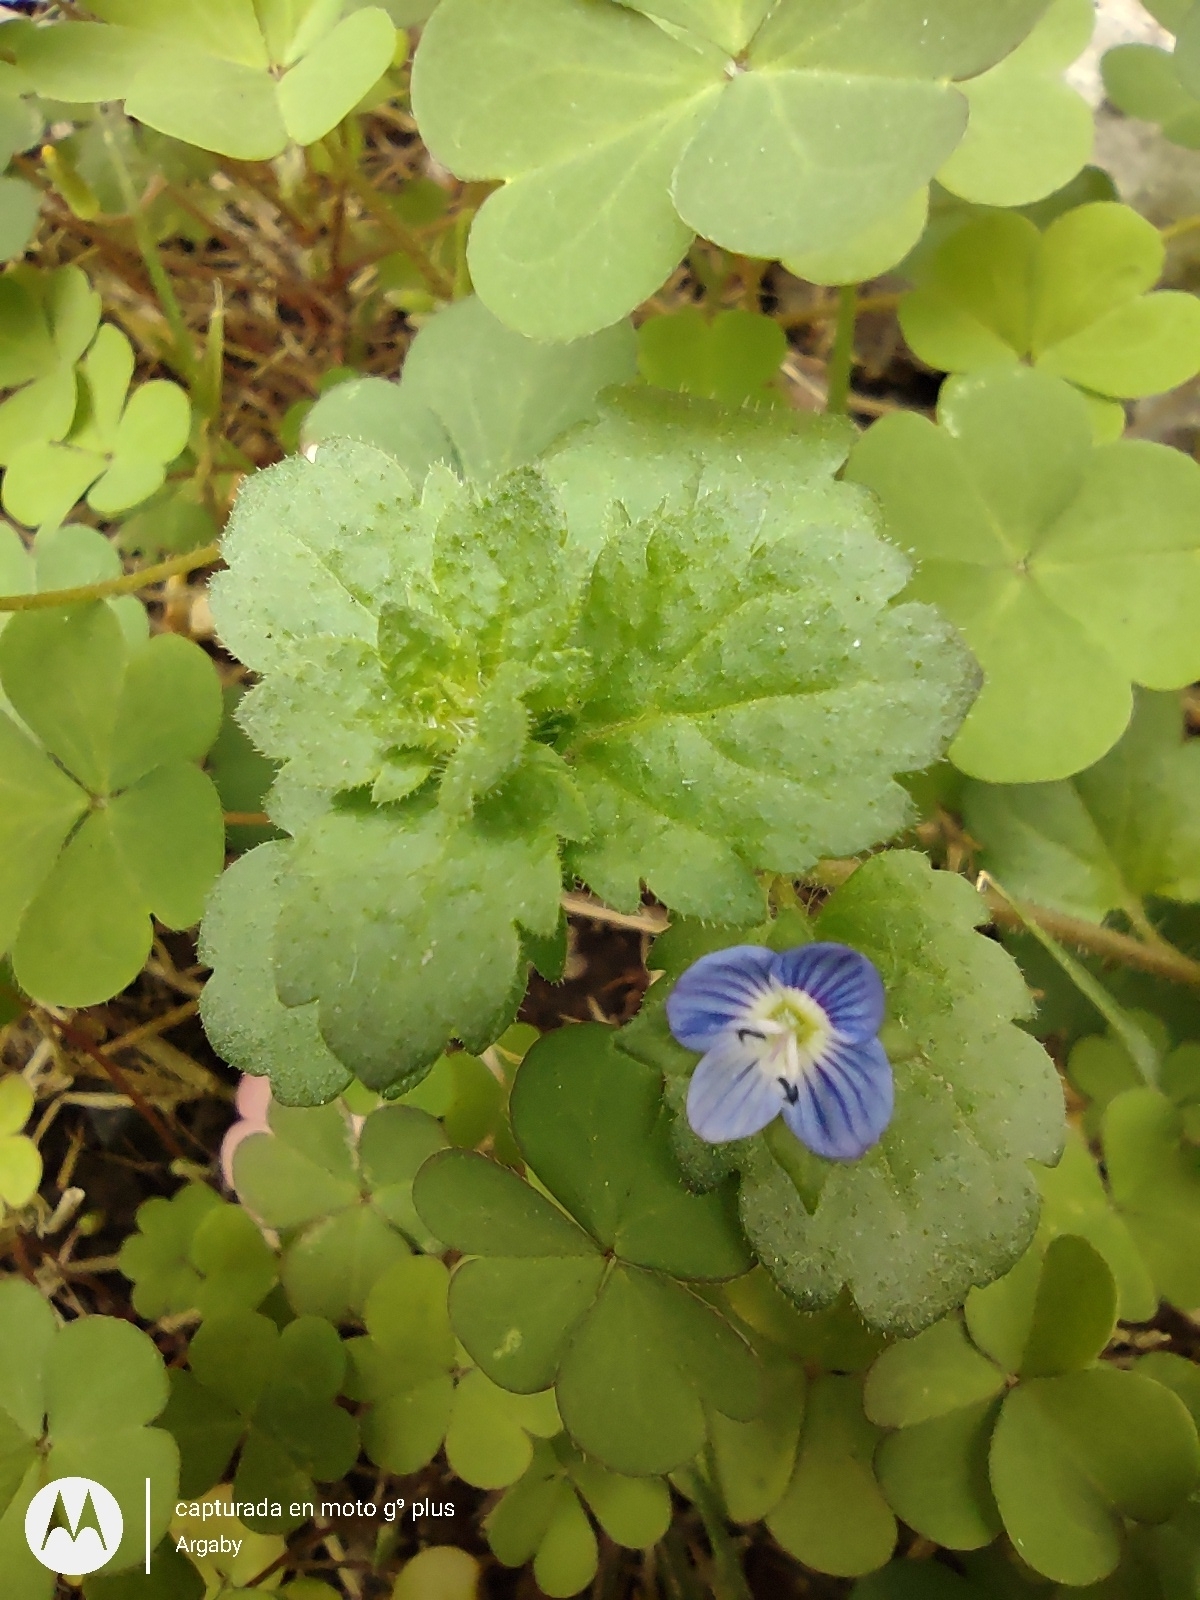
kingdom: Plantae
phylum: Tracheophyta
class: Magnoliopsida
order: Lamiales
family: Plantaginaceae
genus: Veronica
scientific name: Veronica persica
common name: Common field-speedwell
